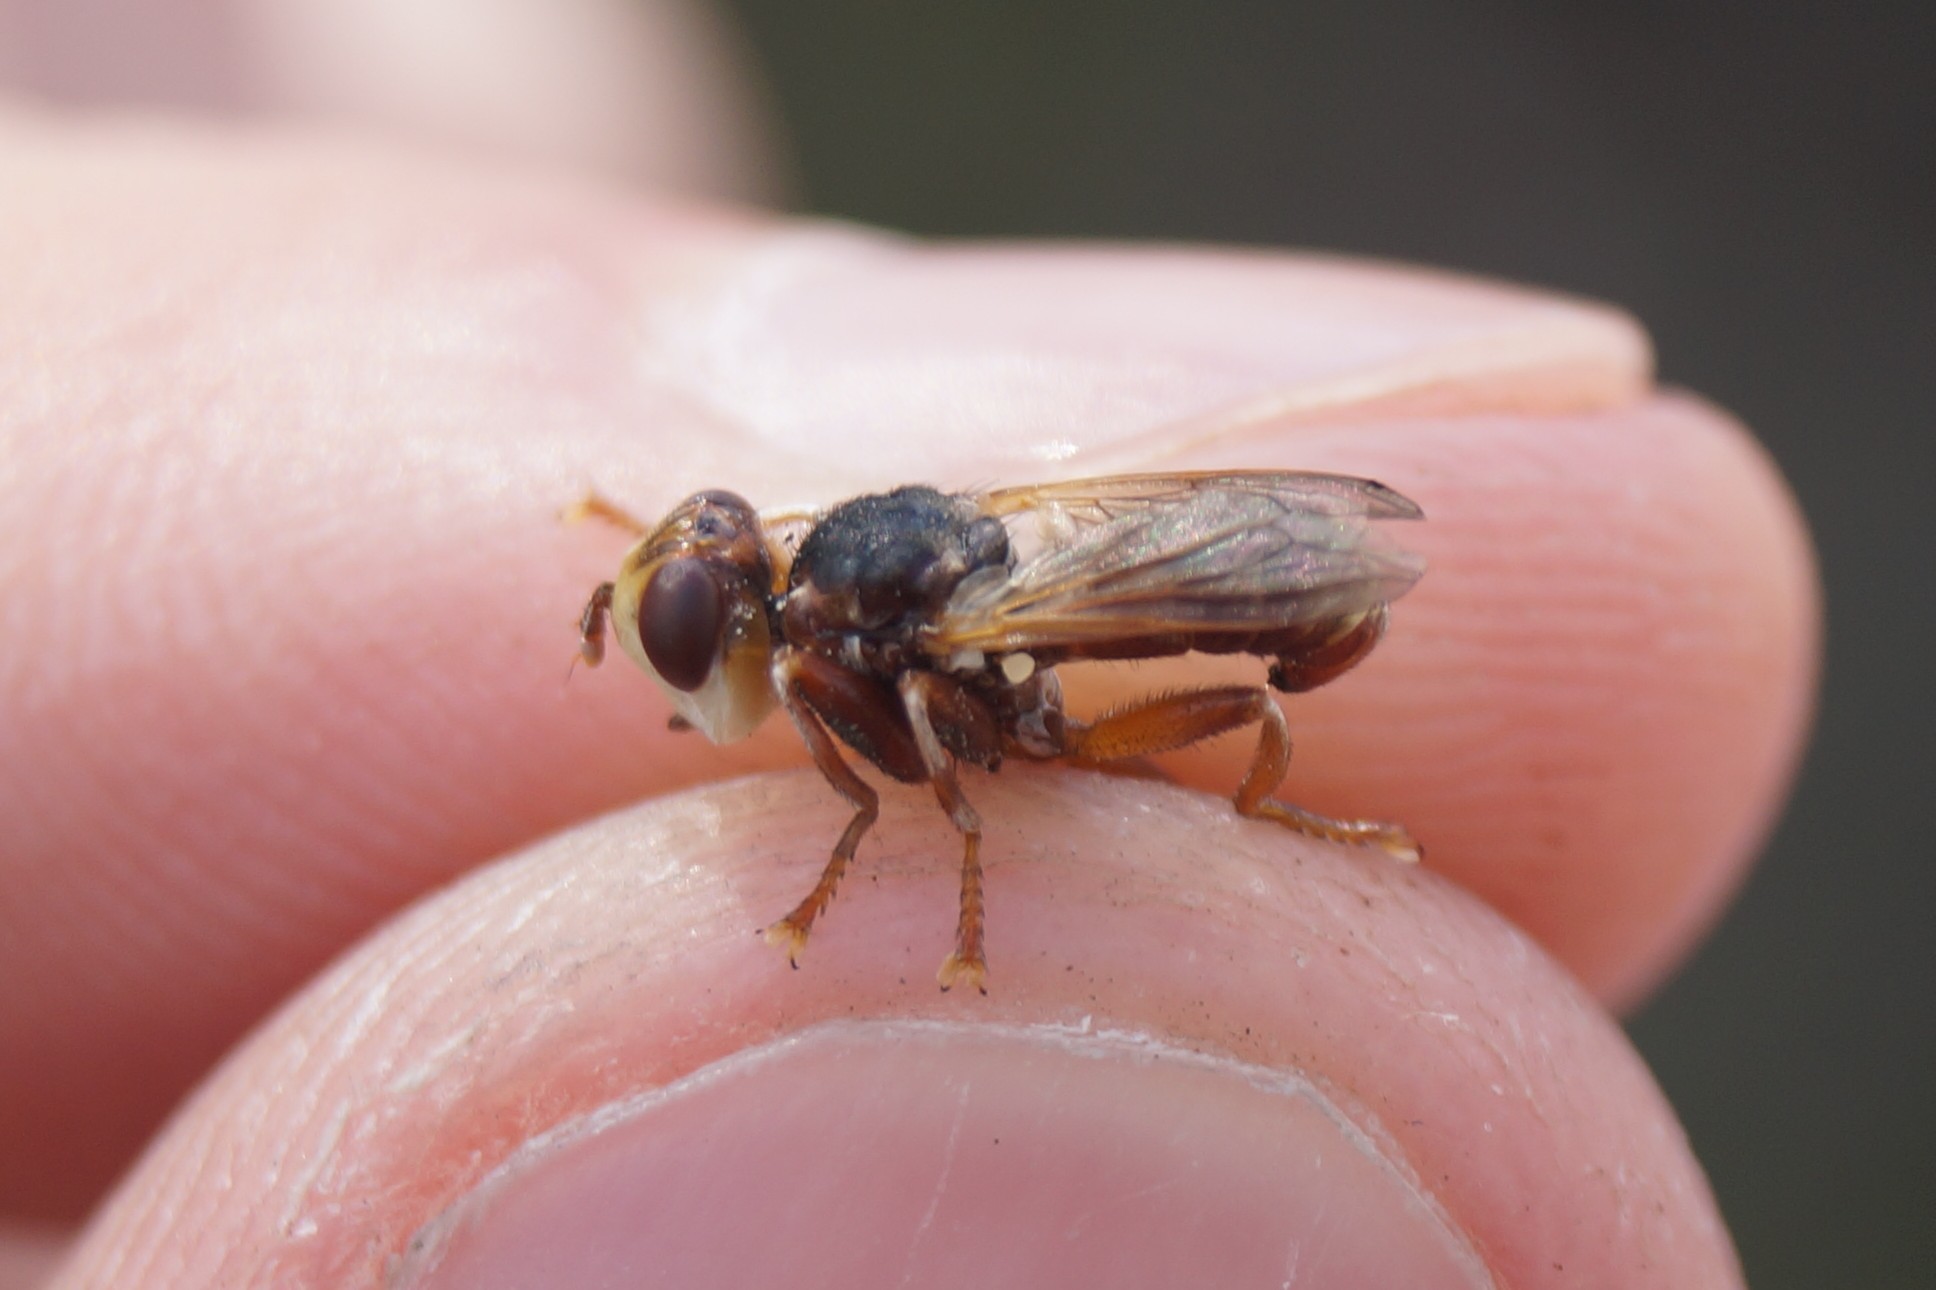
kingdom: Animalia
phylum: Arthropoda
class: Insecta
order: Diptera
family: Conopidae
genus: Myopa
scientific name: Myopa fasciata
